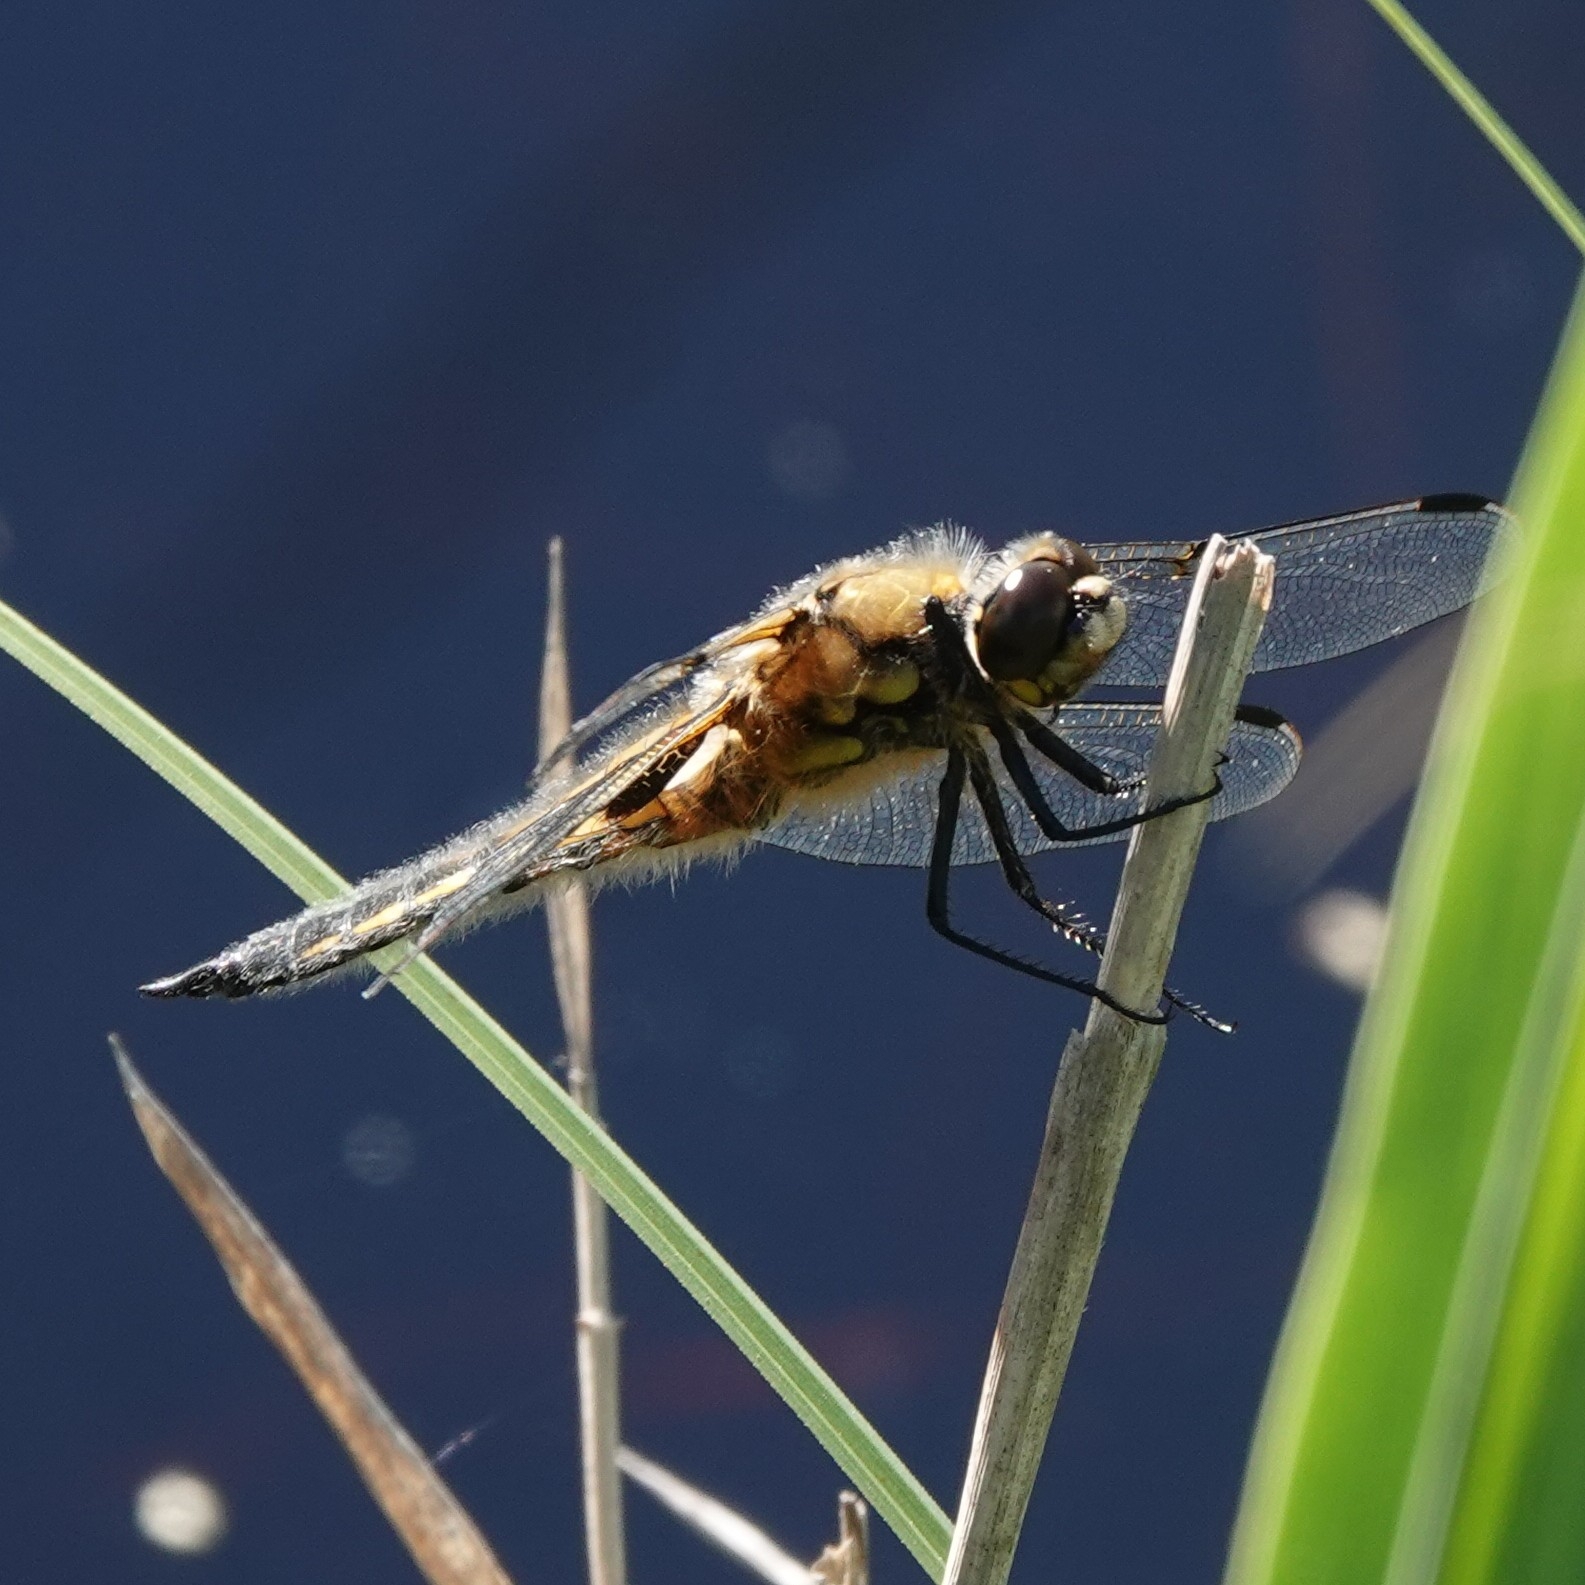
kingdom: Animalia
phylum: Arthropoda
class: Insecta
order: Odonata
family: Libellulidae
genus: Libellula
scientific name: Libellula quadrimaculata
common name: Four-spotted chaser
